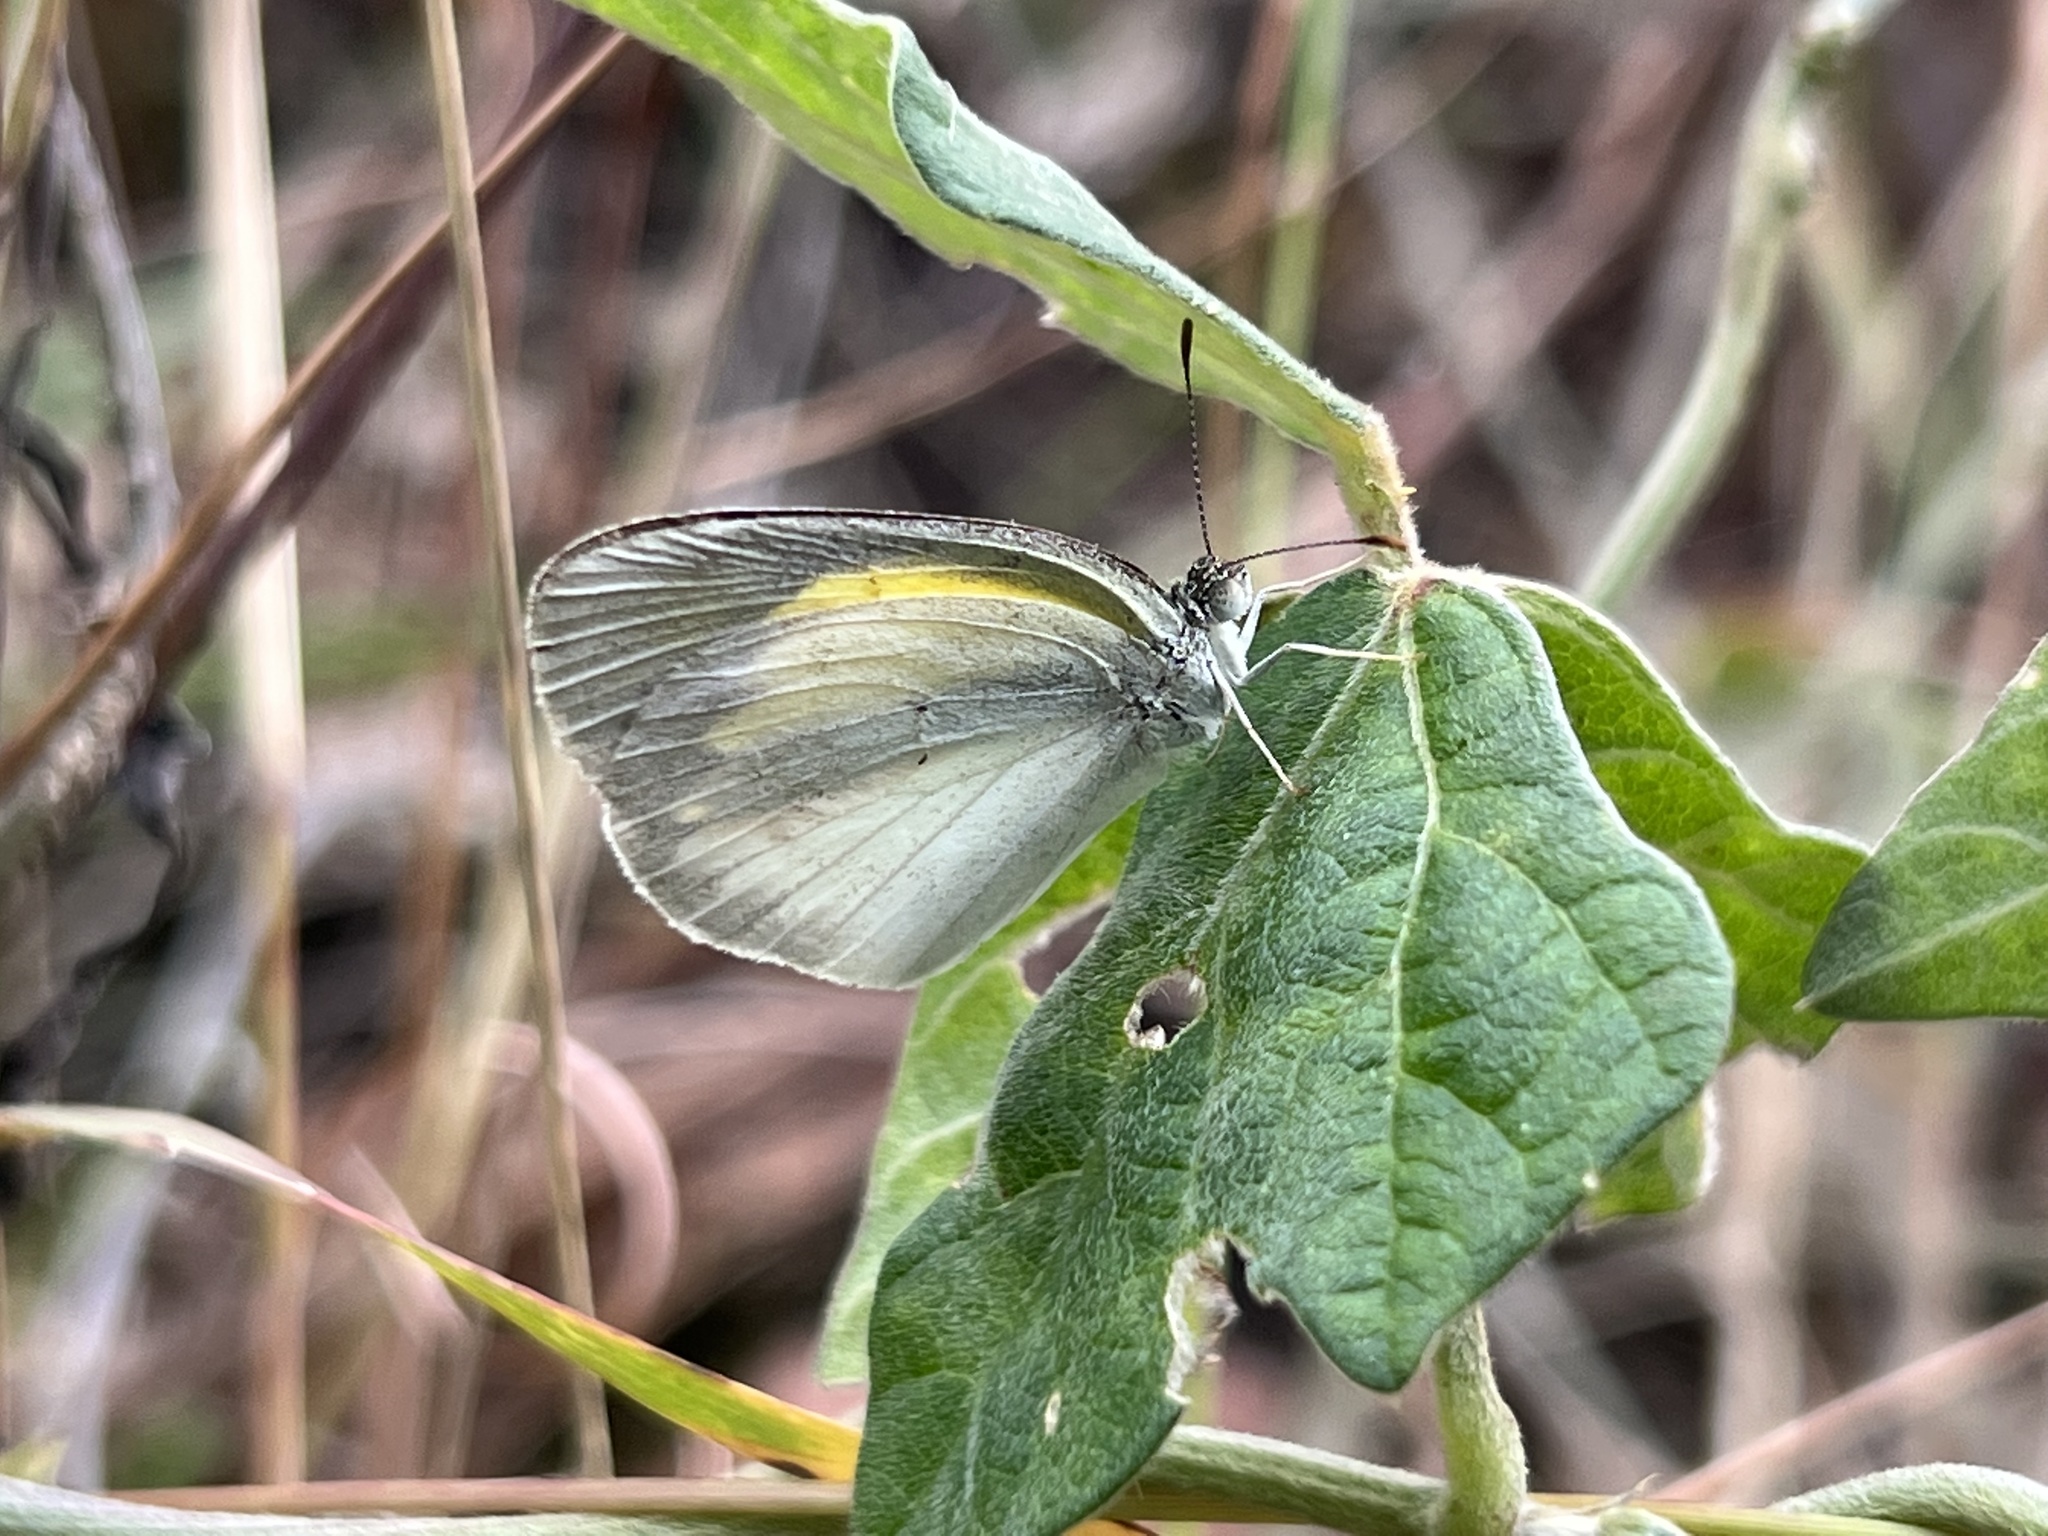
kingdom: Animalia
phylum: Arthropoda
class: Insecta
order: Lepidoptera
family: Pieridae
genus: Eurema
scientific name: Eurema elathea
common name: Banded yellow
